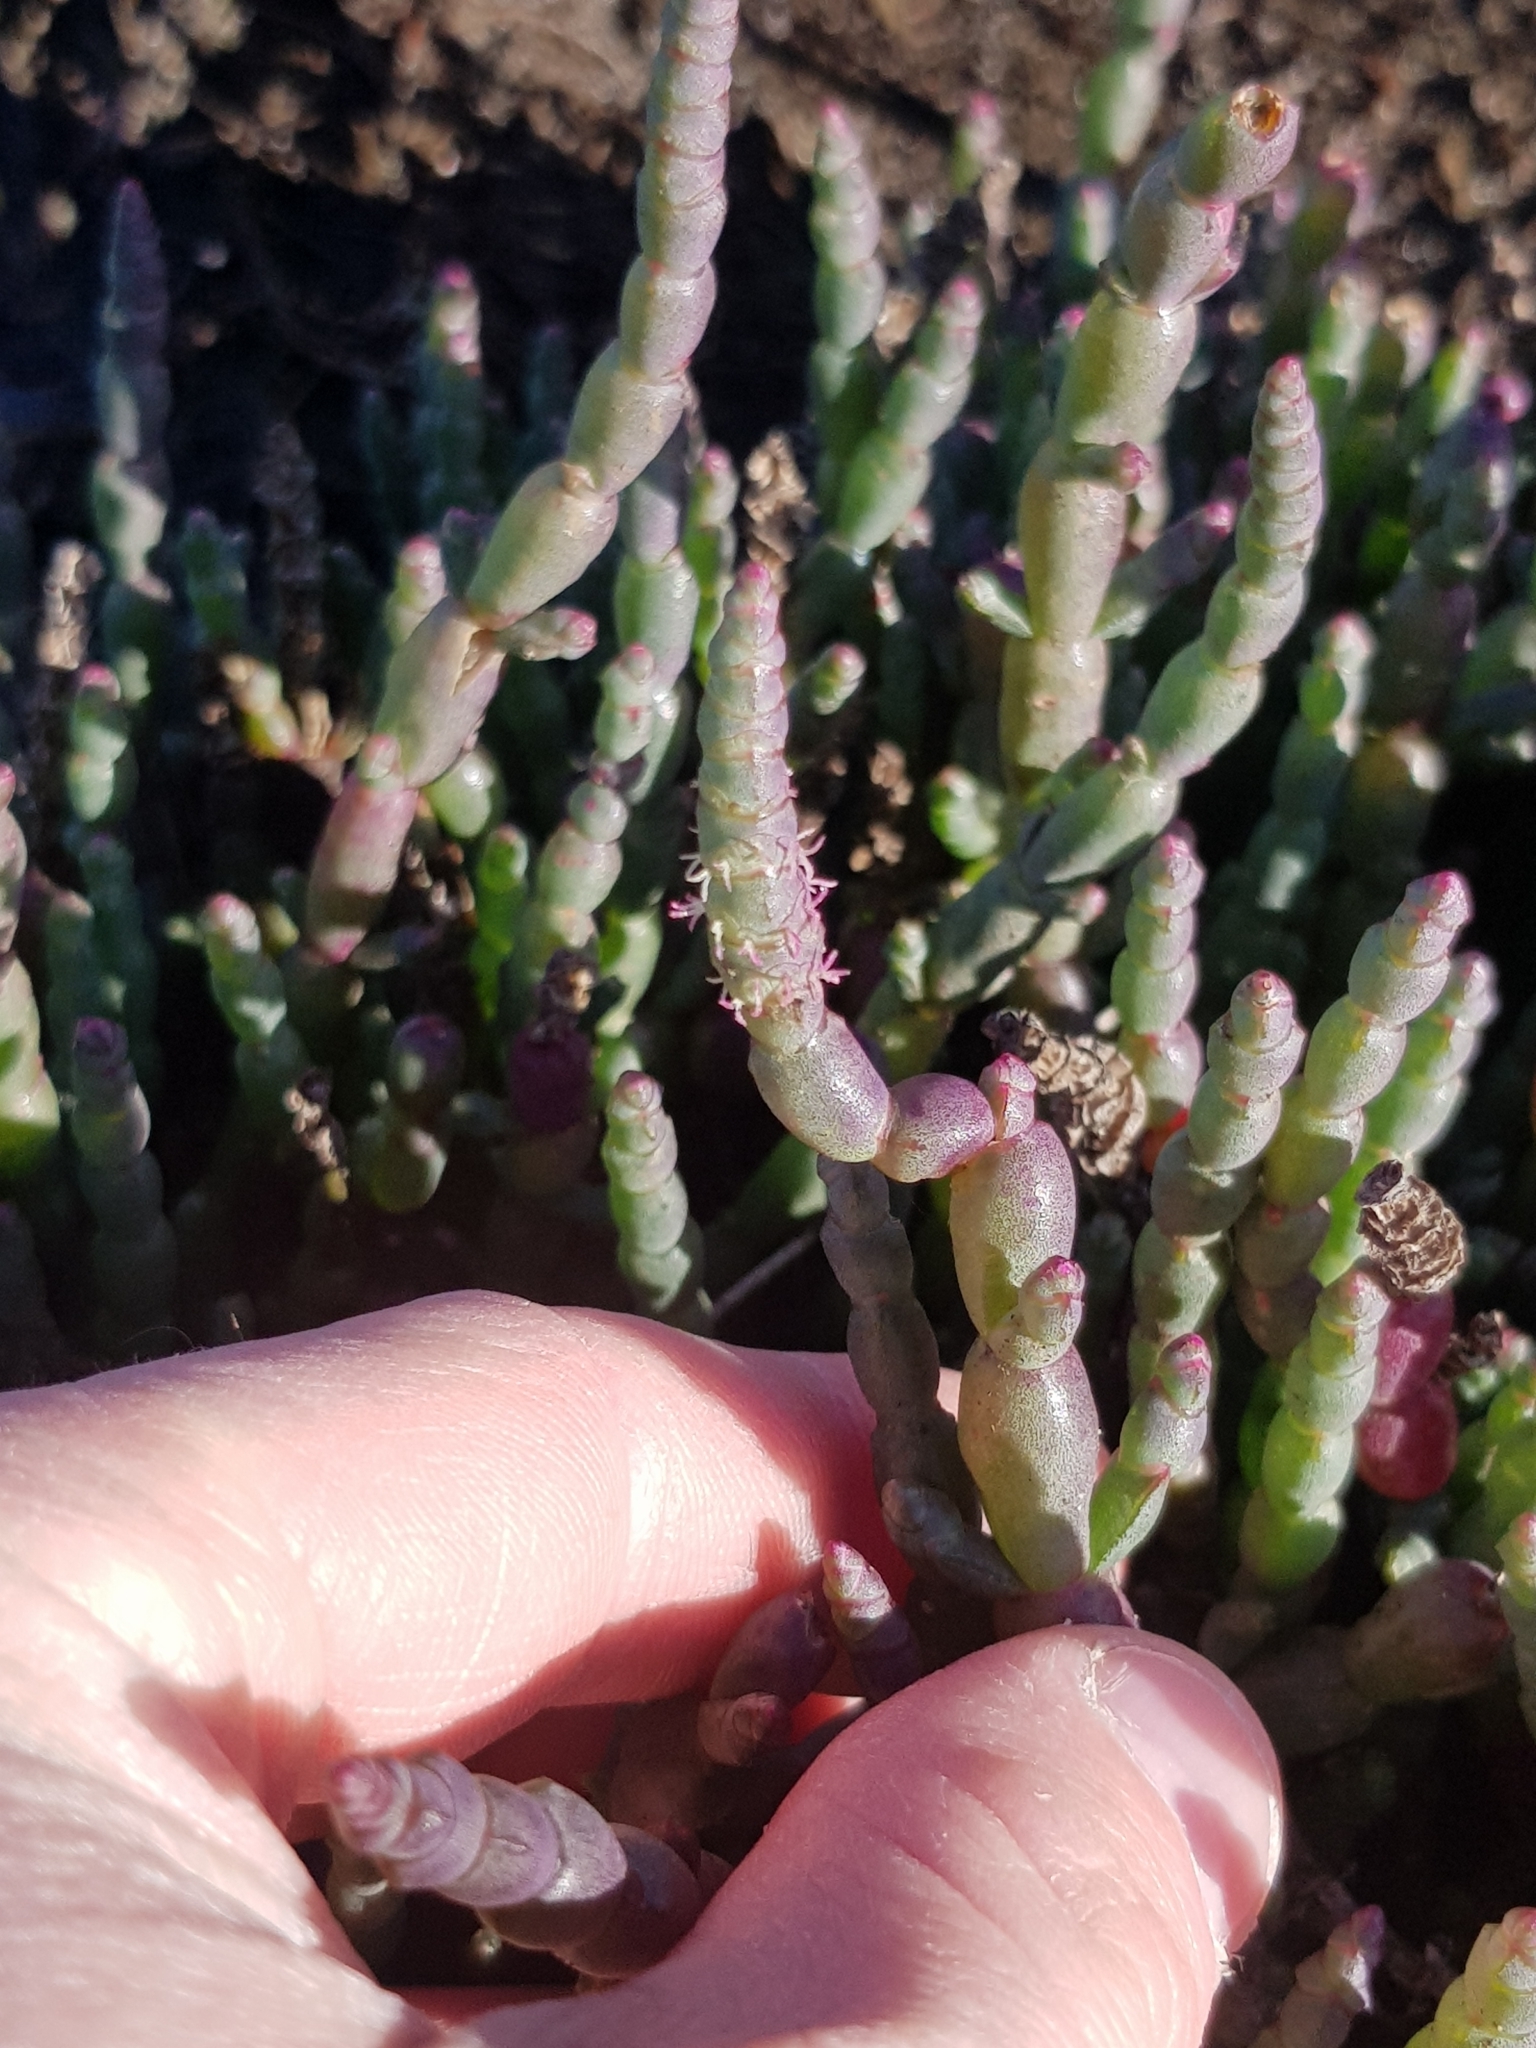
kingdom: Plantae
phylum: Tracheophyta
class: Magnoliopsida
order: Caryophyllales
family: Amaranthaceae
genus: Salicornia
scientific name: Salicornia blackiana
